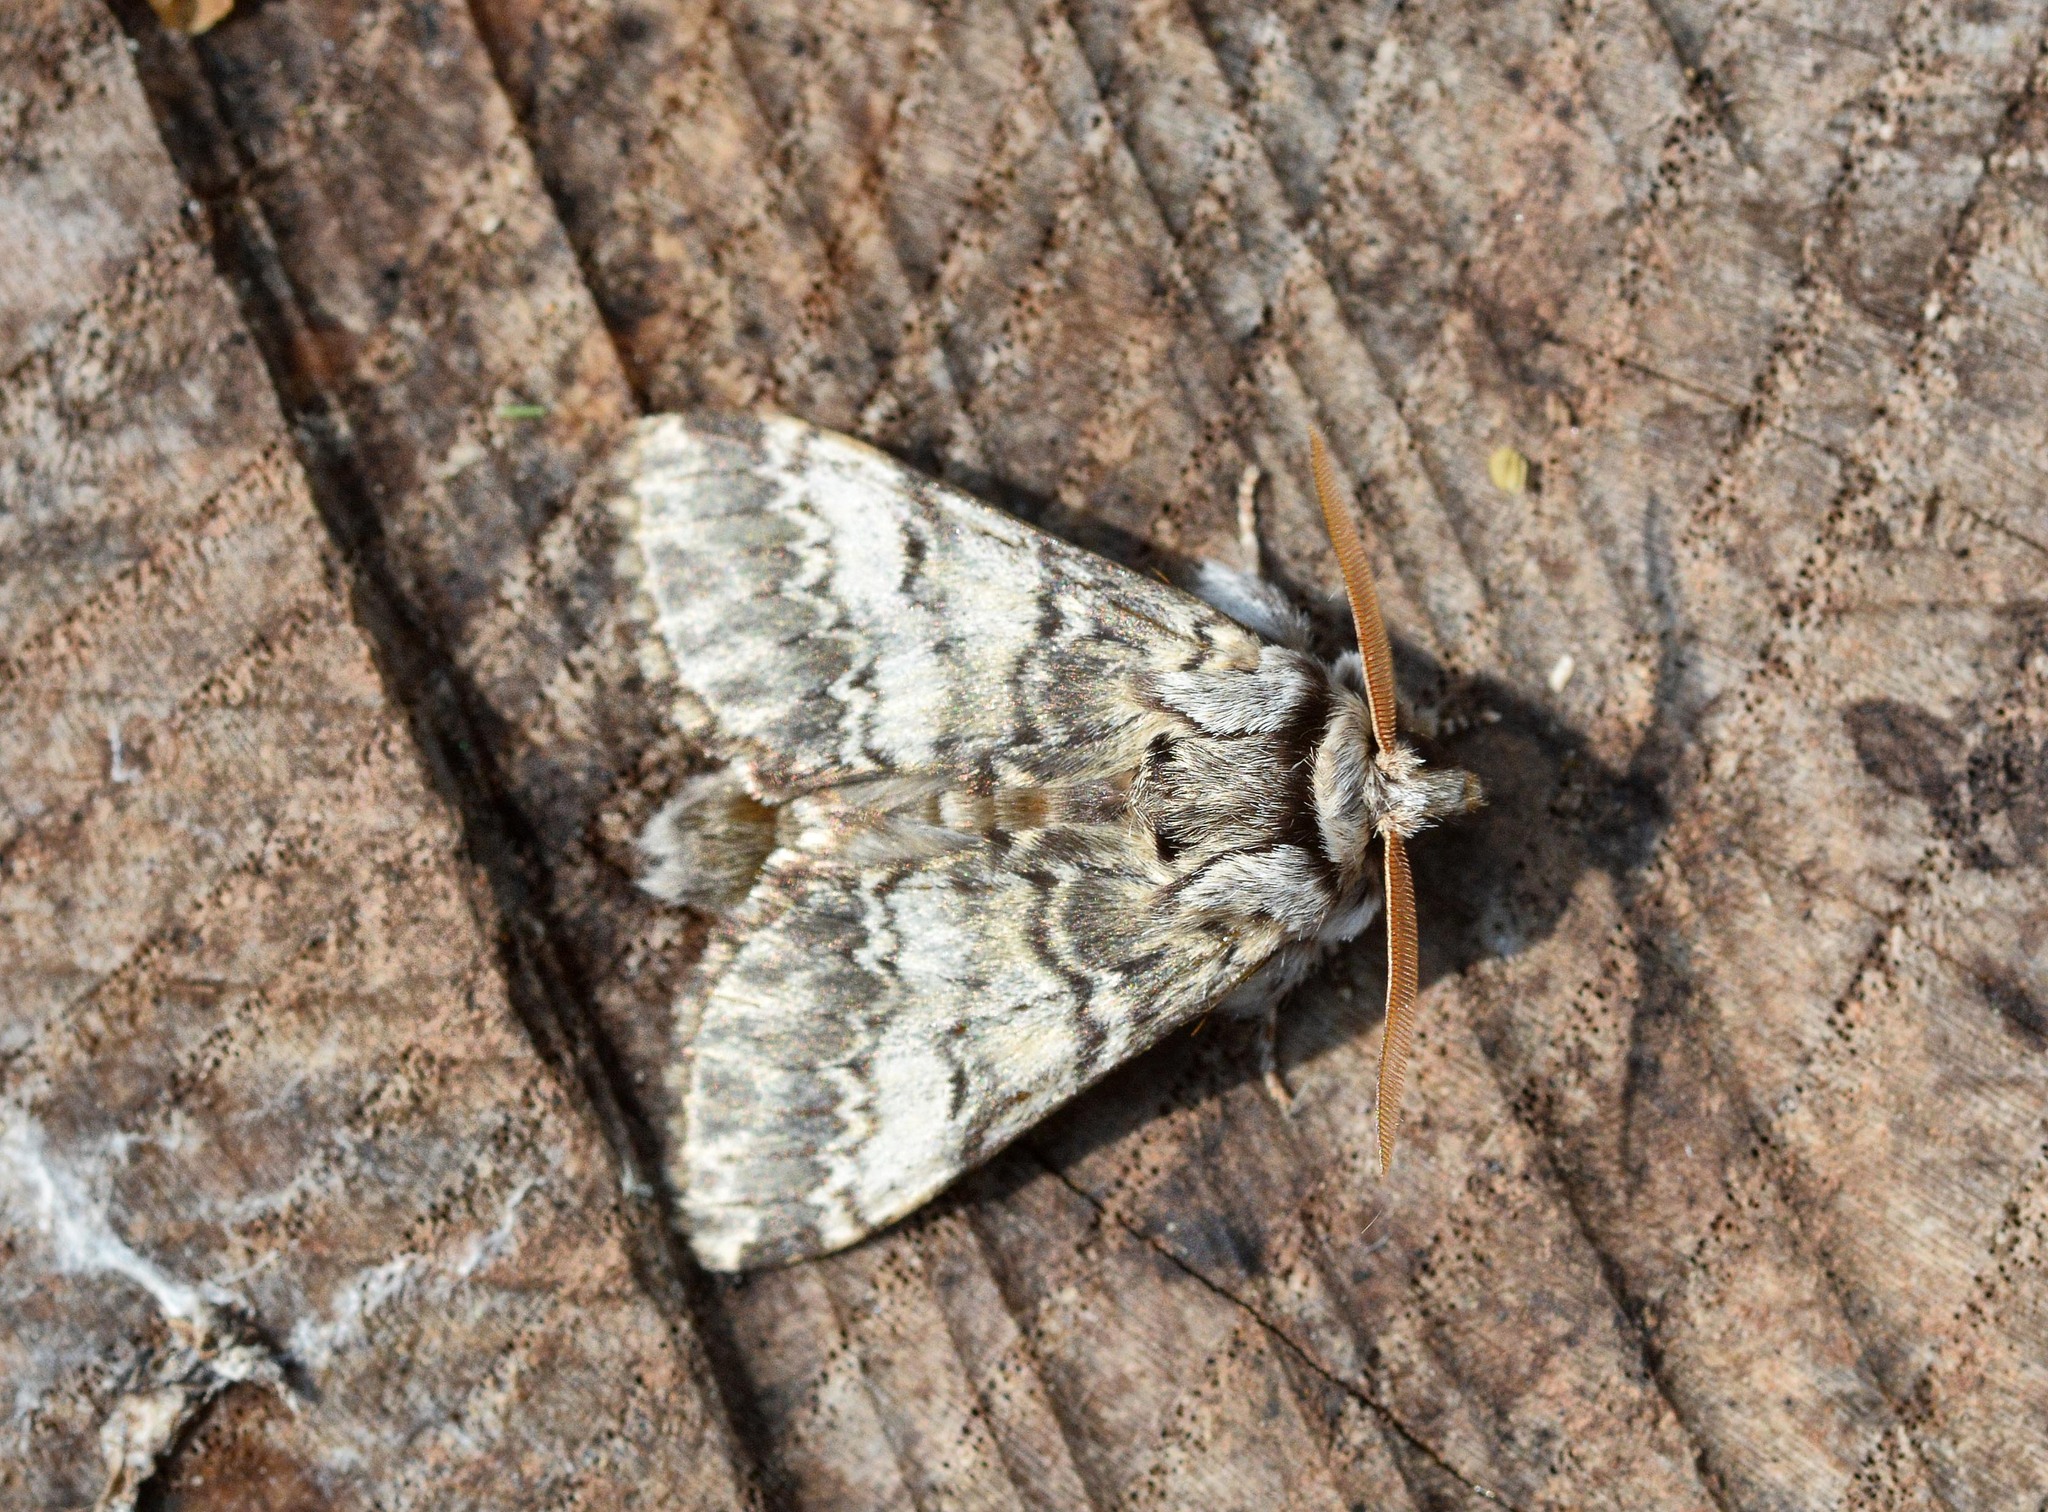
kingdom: Animalia
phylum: Arthropoda
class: Insecta
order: Lepidoptera
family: Notodontidae
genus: Drymonia
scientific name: Drymonia ruficornis
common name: Lunar marbled brown
